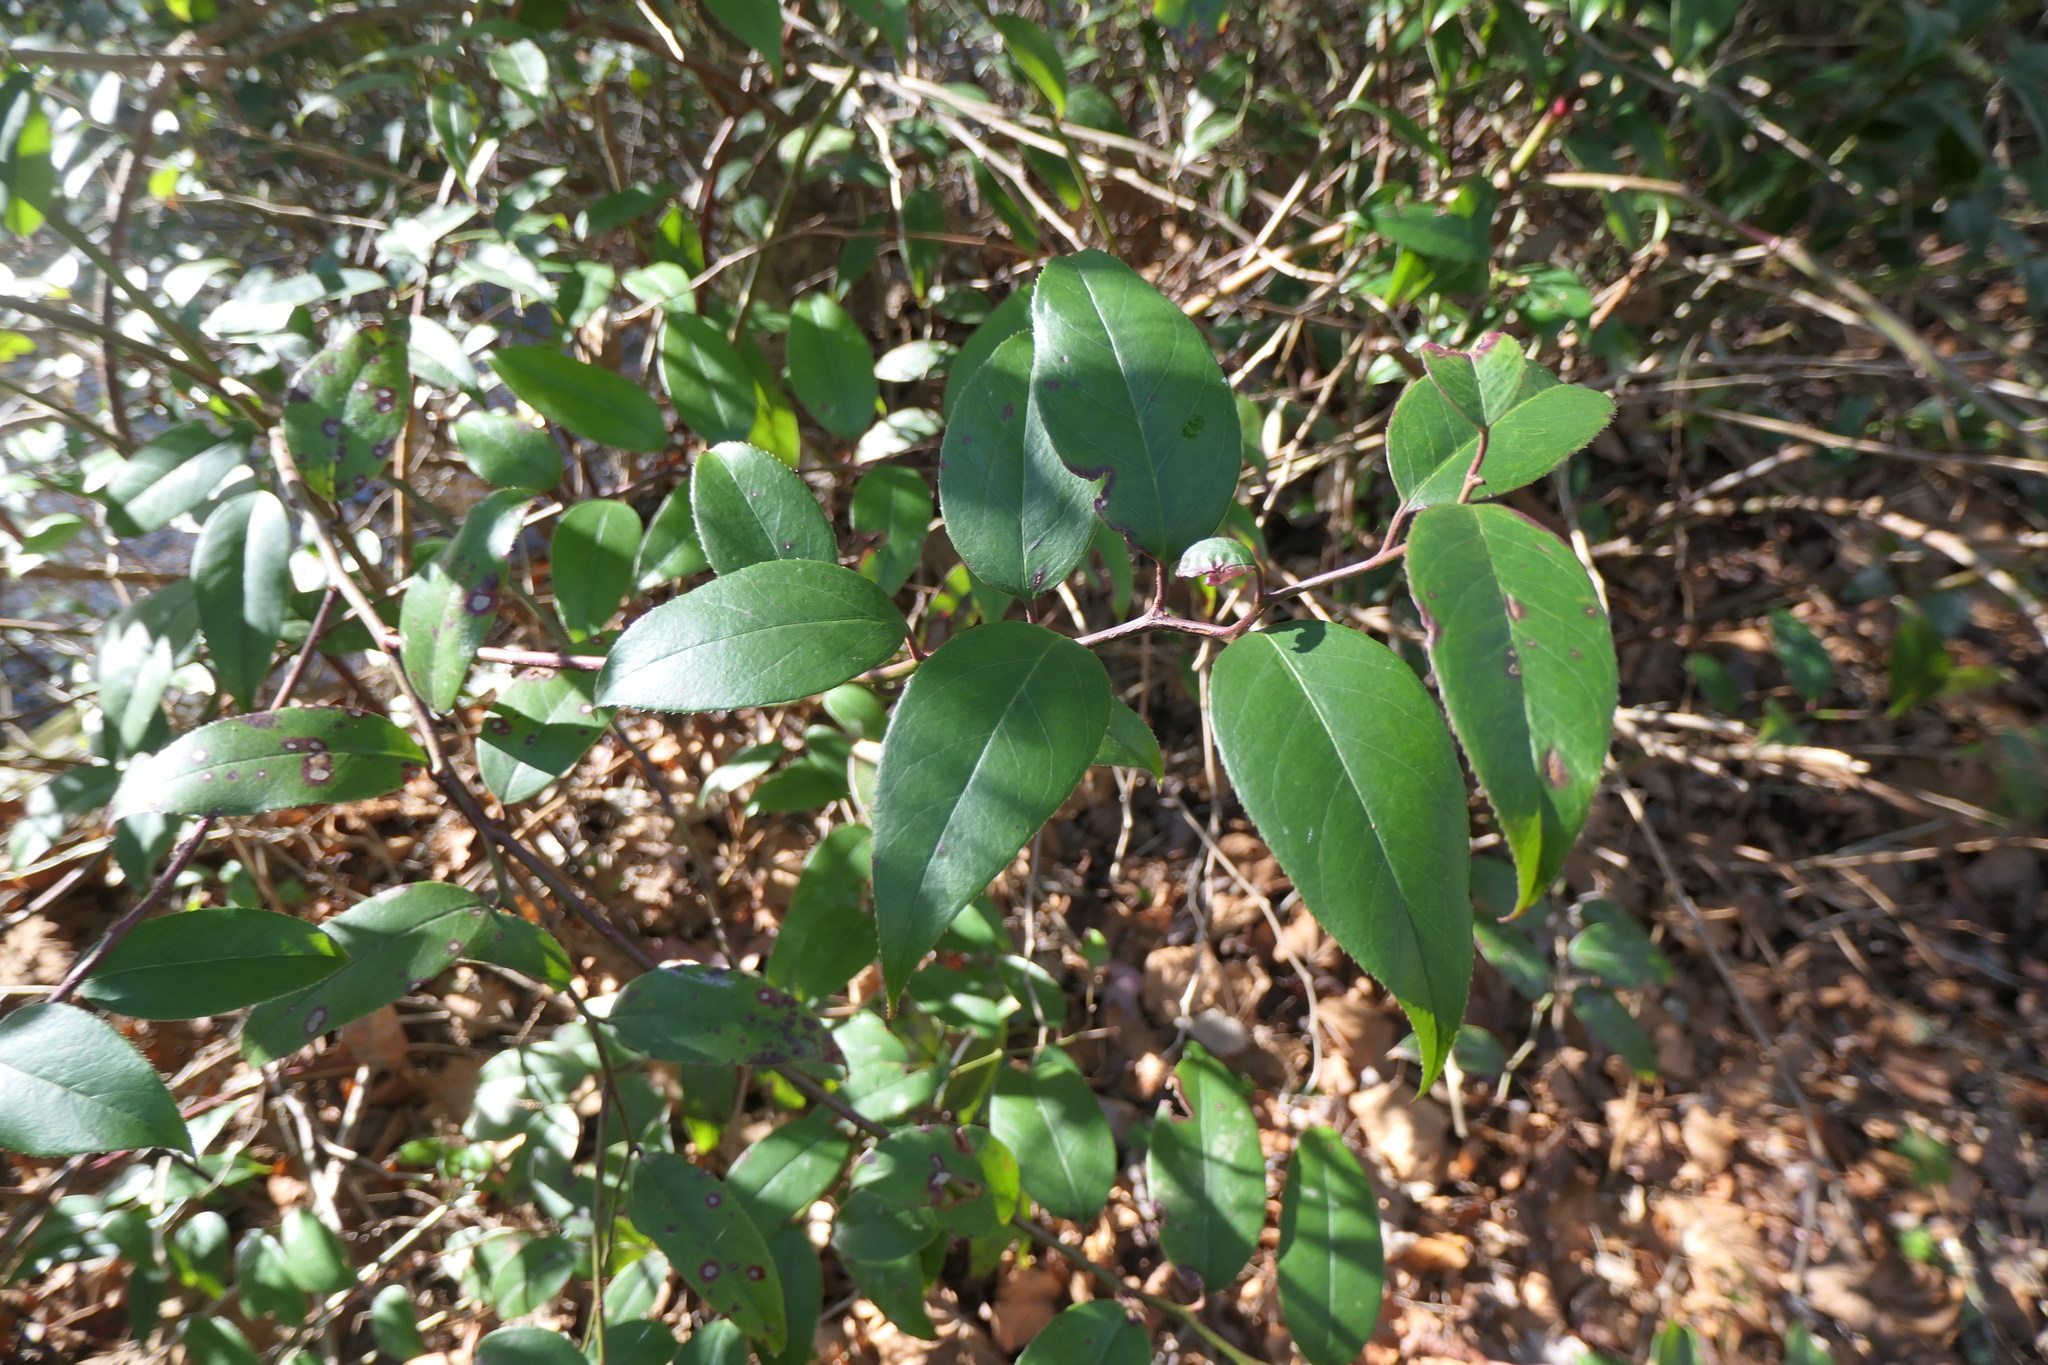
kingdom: Plantae
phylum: Tracheophyta
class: Magnoliopsida
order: Ericales
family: Ericaceae
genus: Leucothoe
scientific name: Leucothoe fontanesiana
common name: Fetterbush
